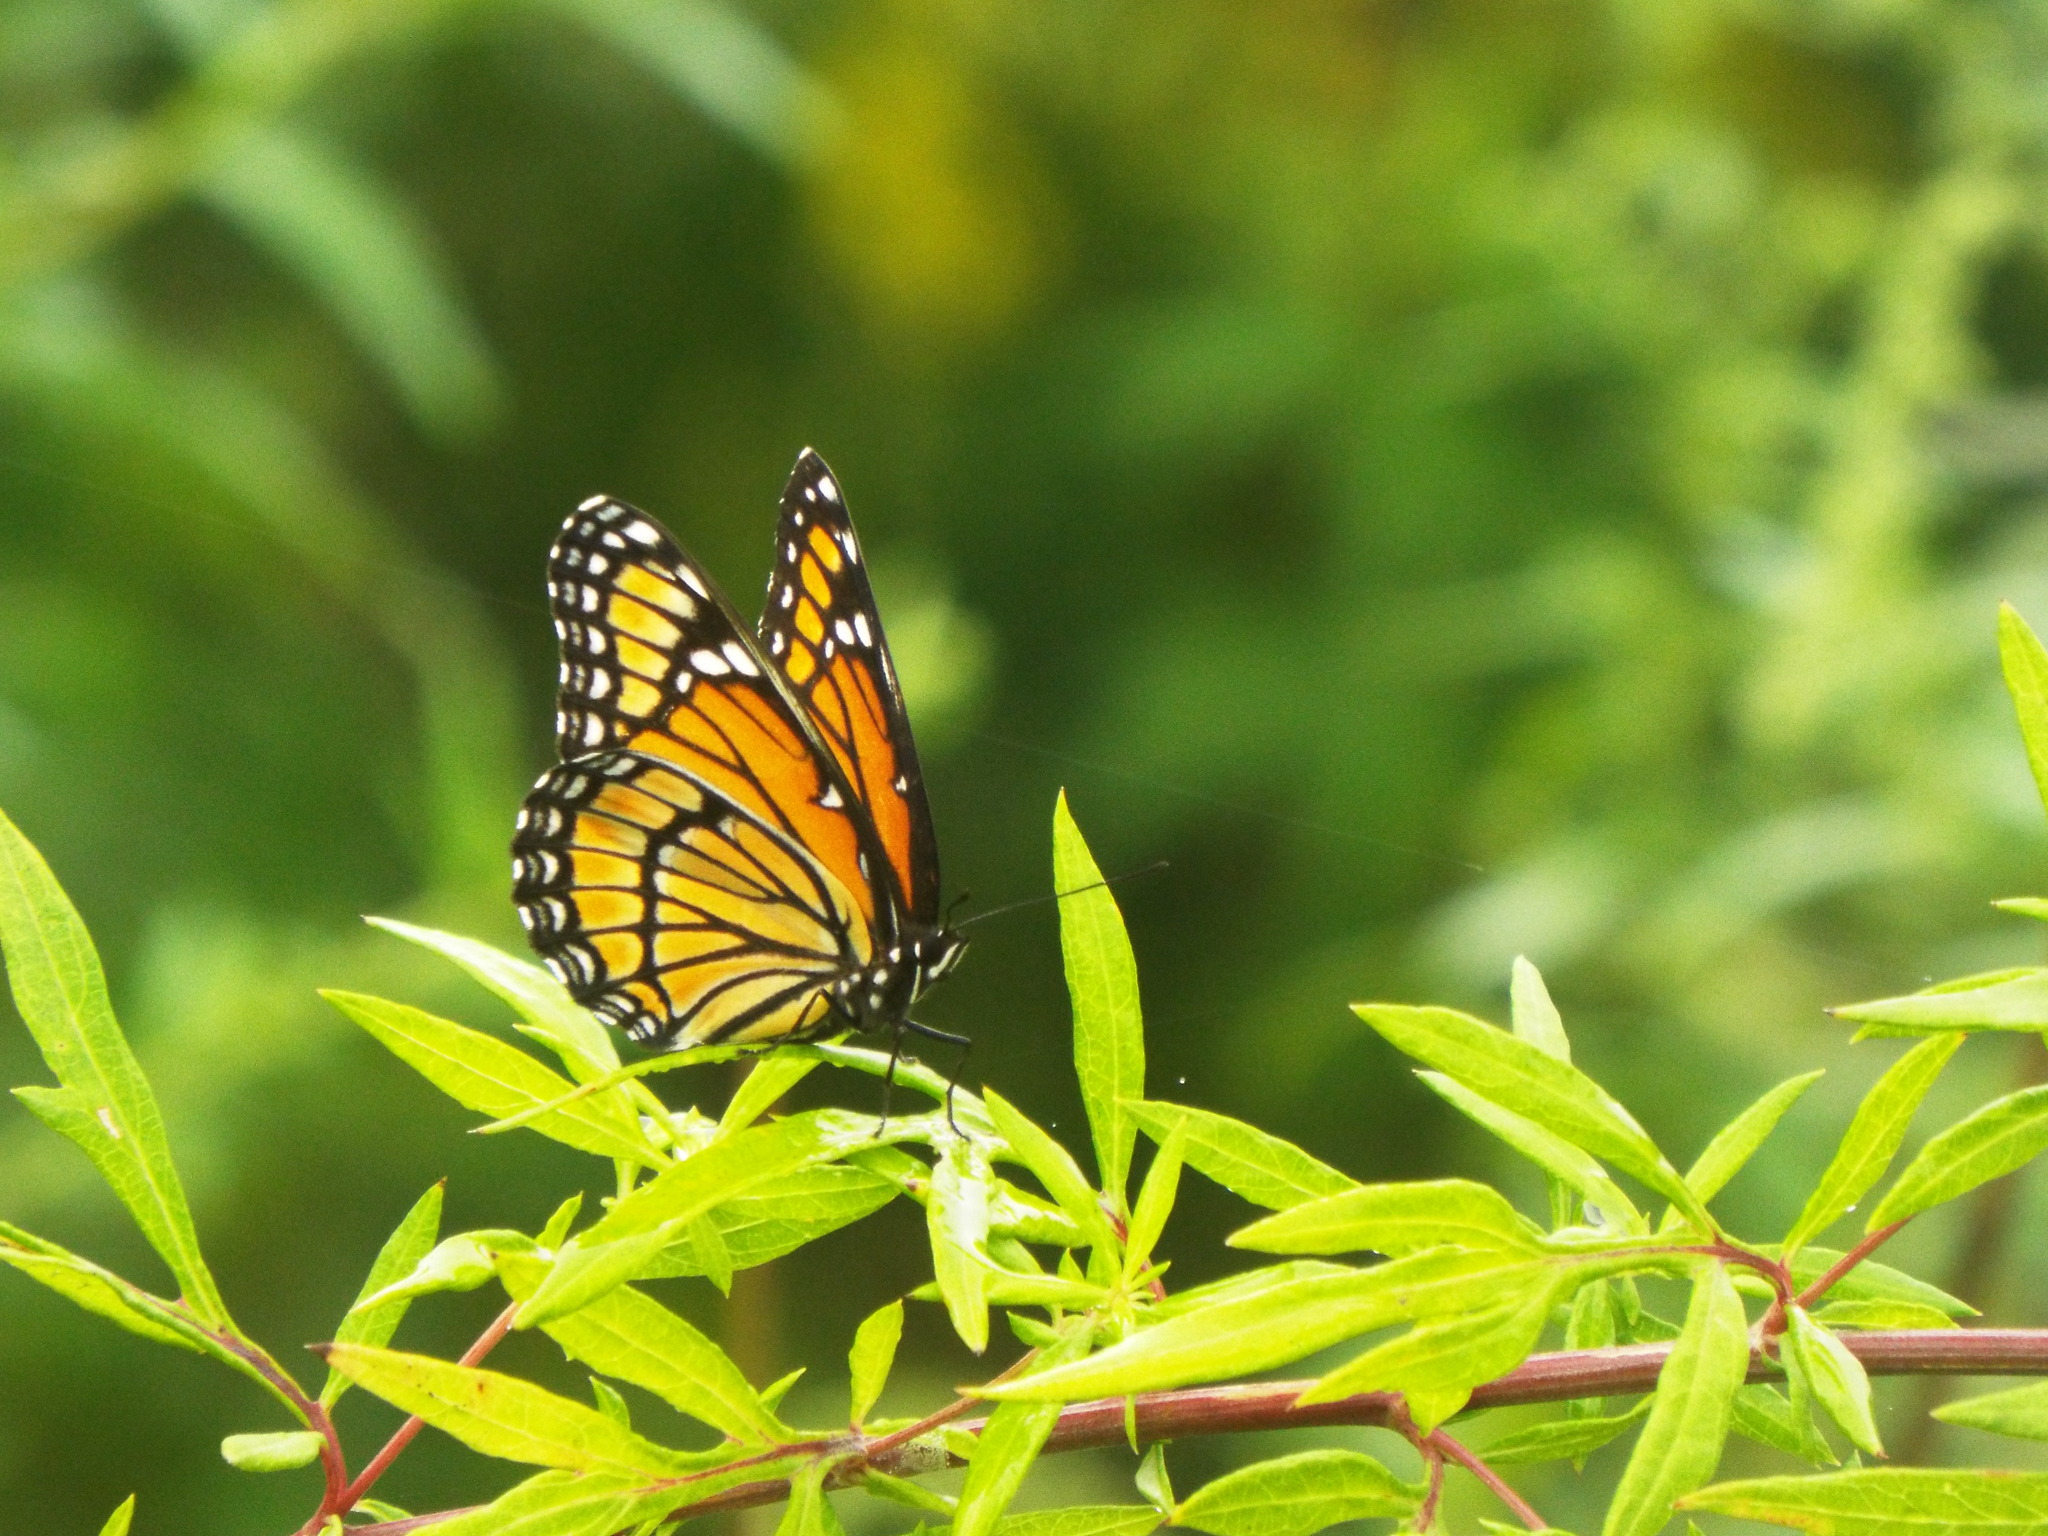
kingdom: Animalia
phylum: Arthropoda
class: Insecta
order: Lepidoptera
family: Nymphalidae
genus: Limenitis
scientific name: Limenitis archippus
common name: Viceroy
